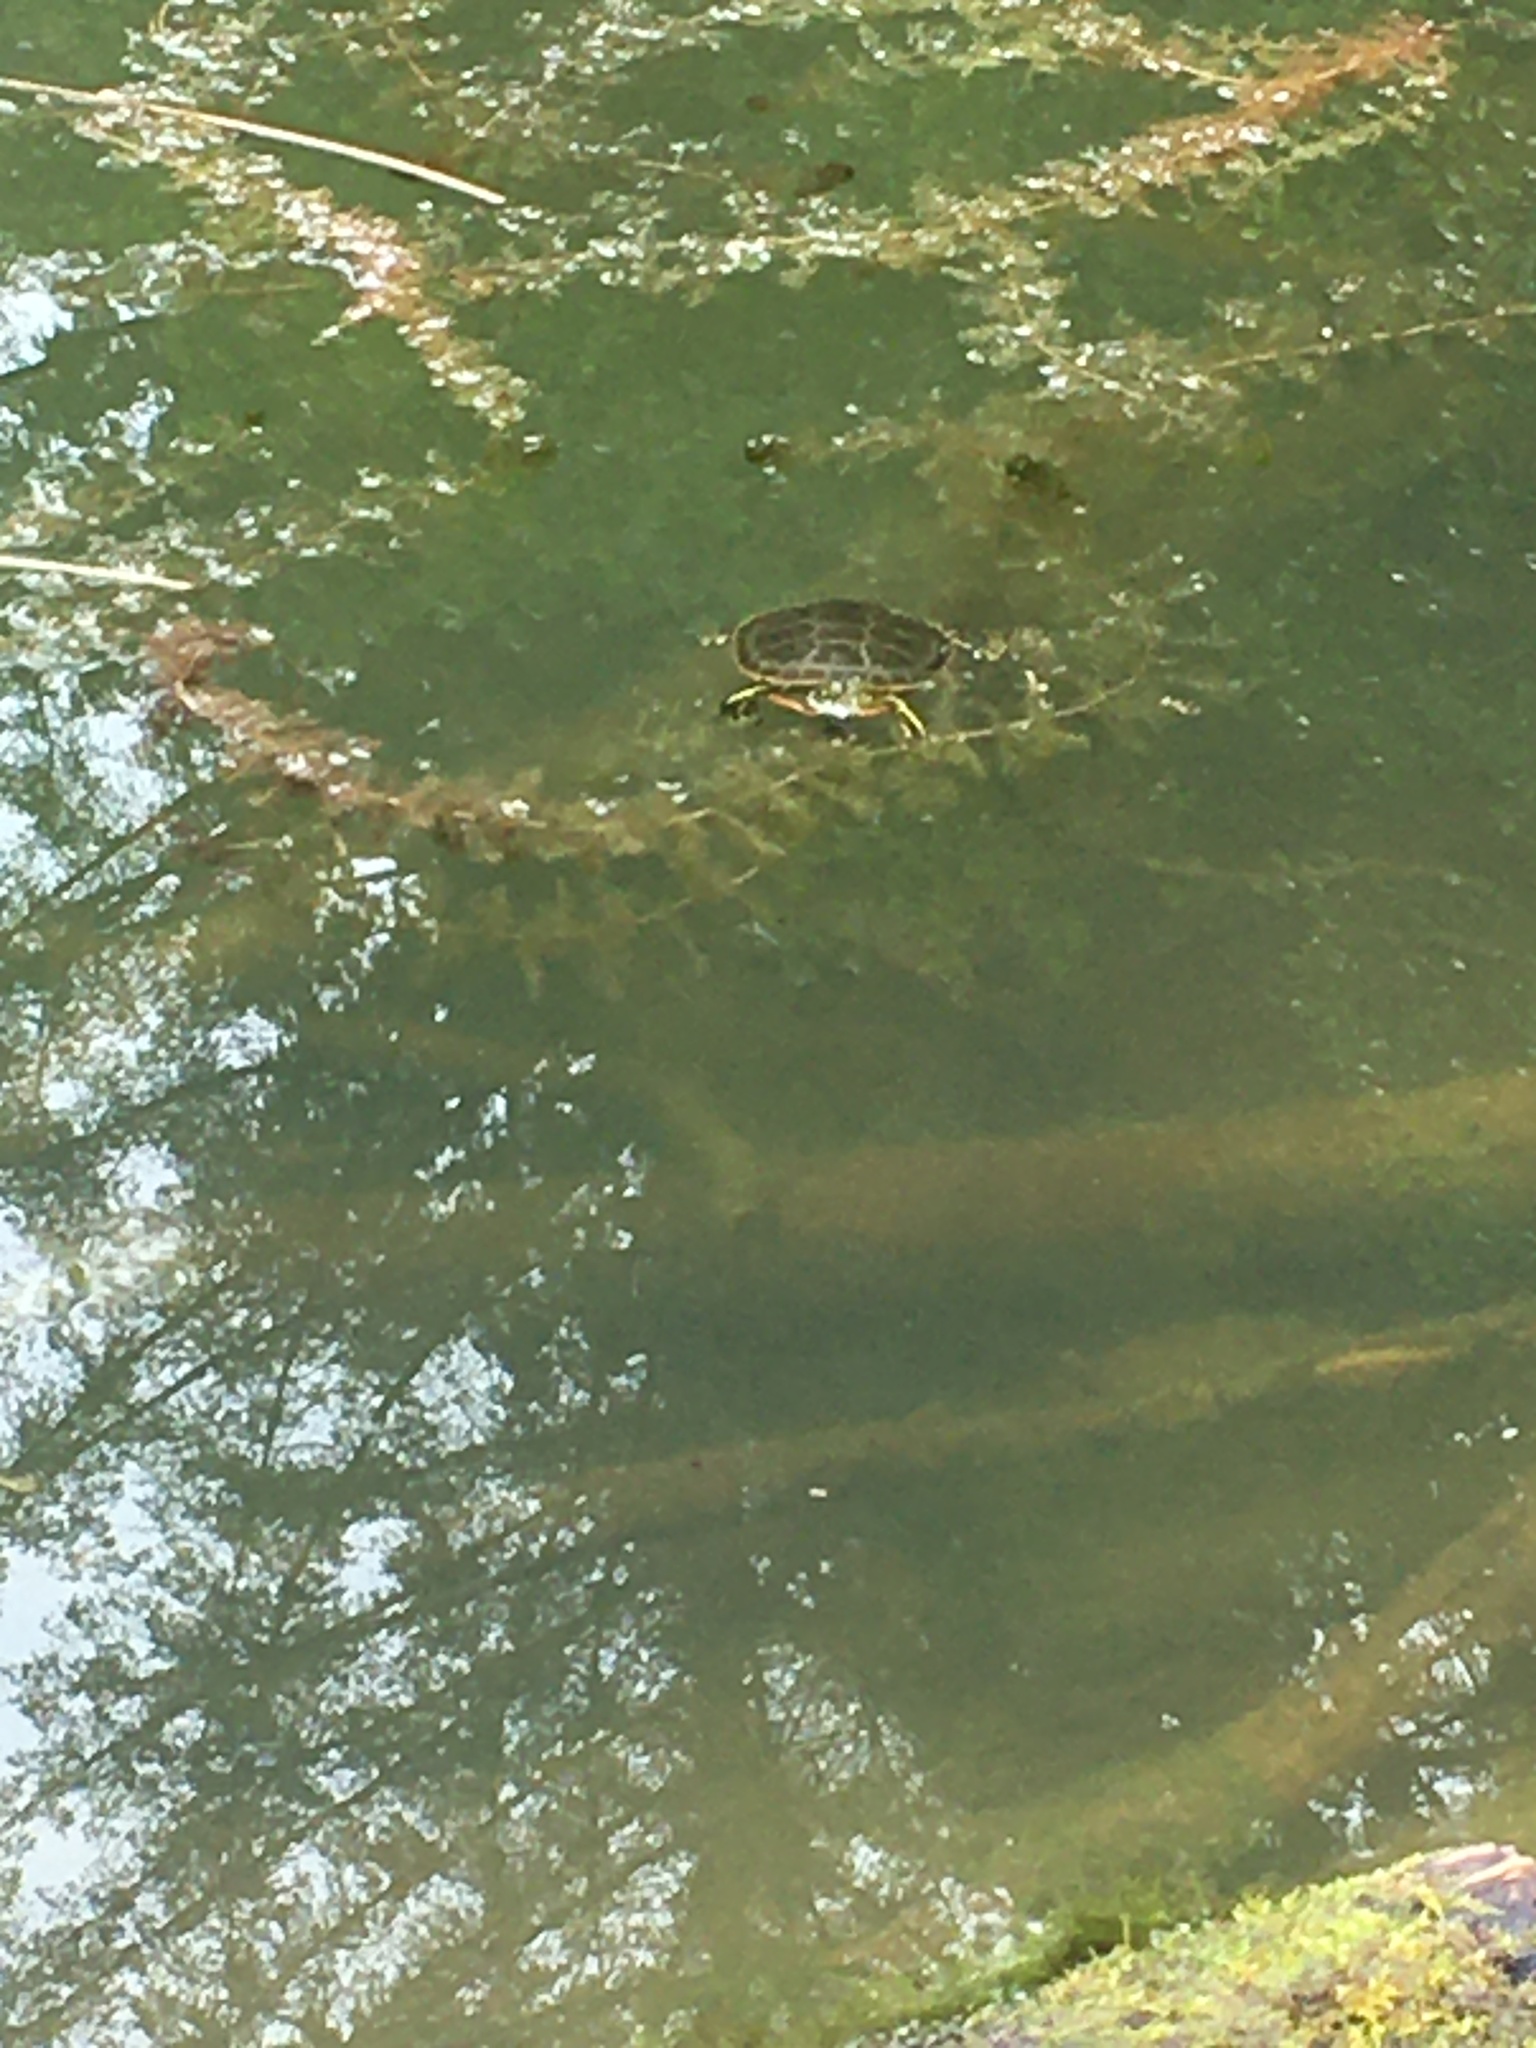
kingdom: Animalia
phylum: Chordata
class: Testudines
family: Emydidae
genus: Chrysemys
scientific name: Chrysemys picta
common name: Painted turtle
